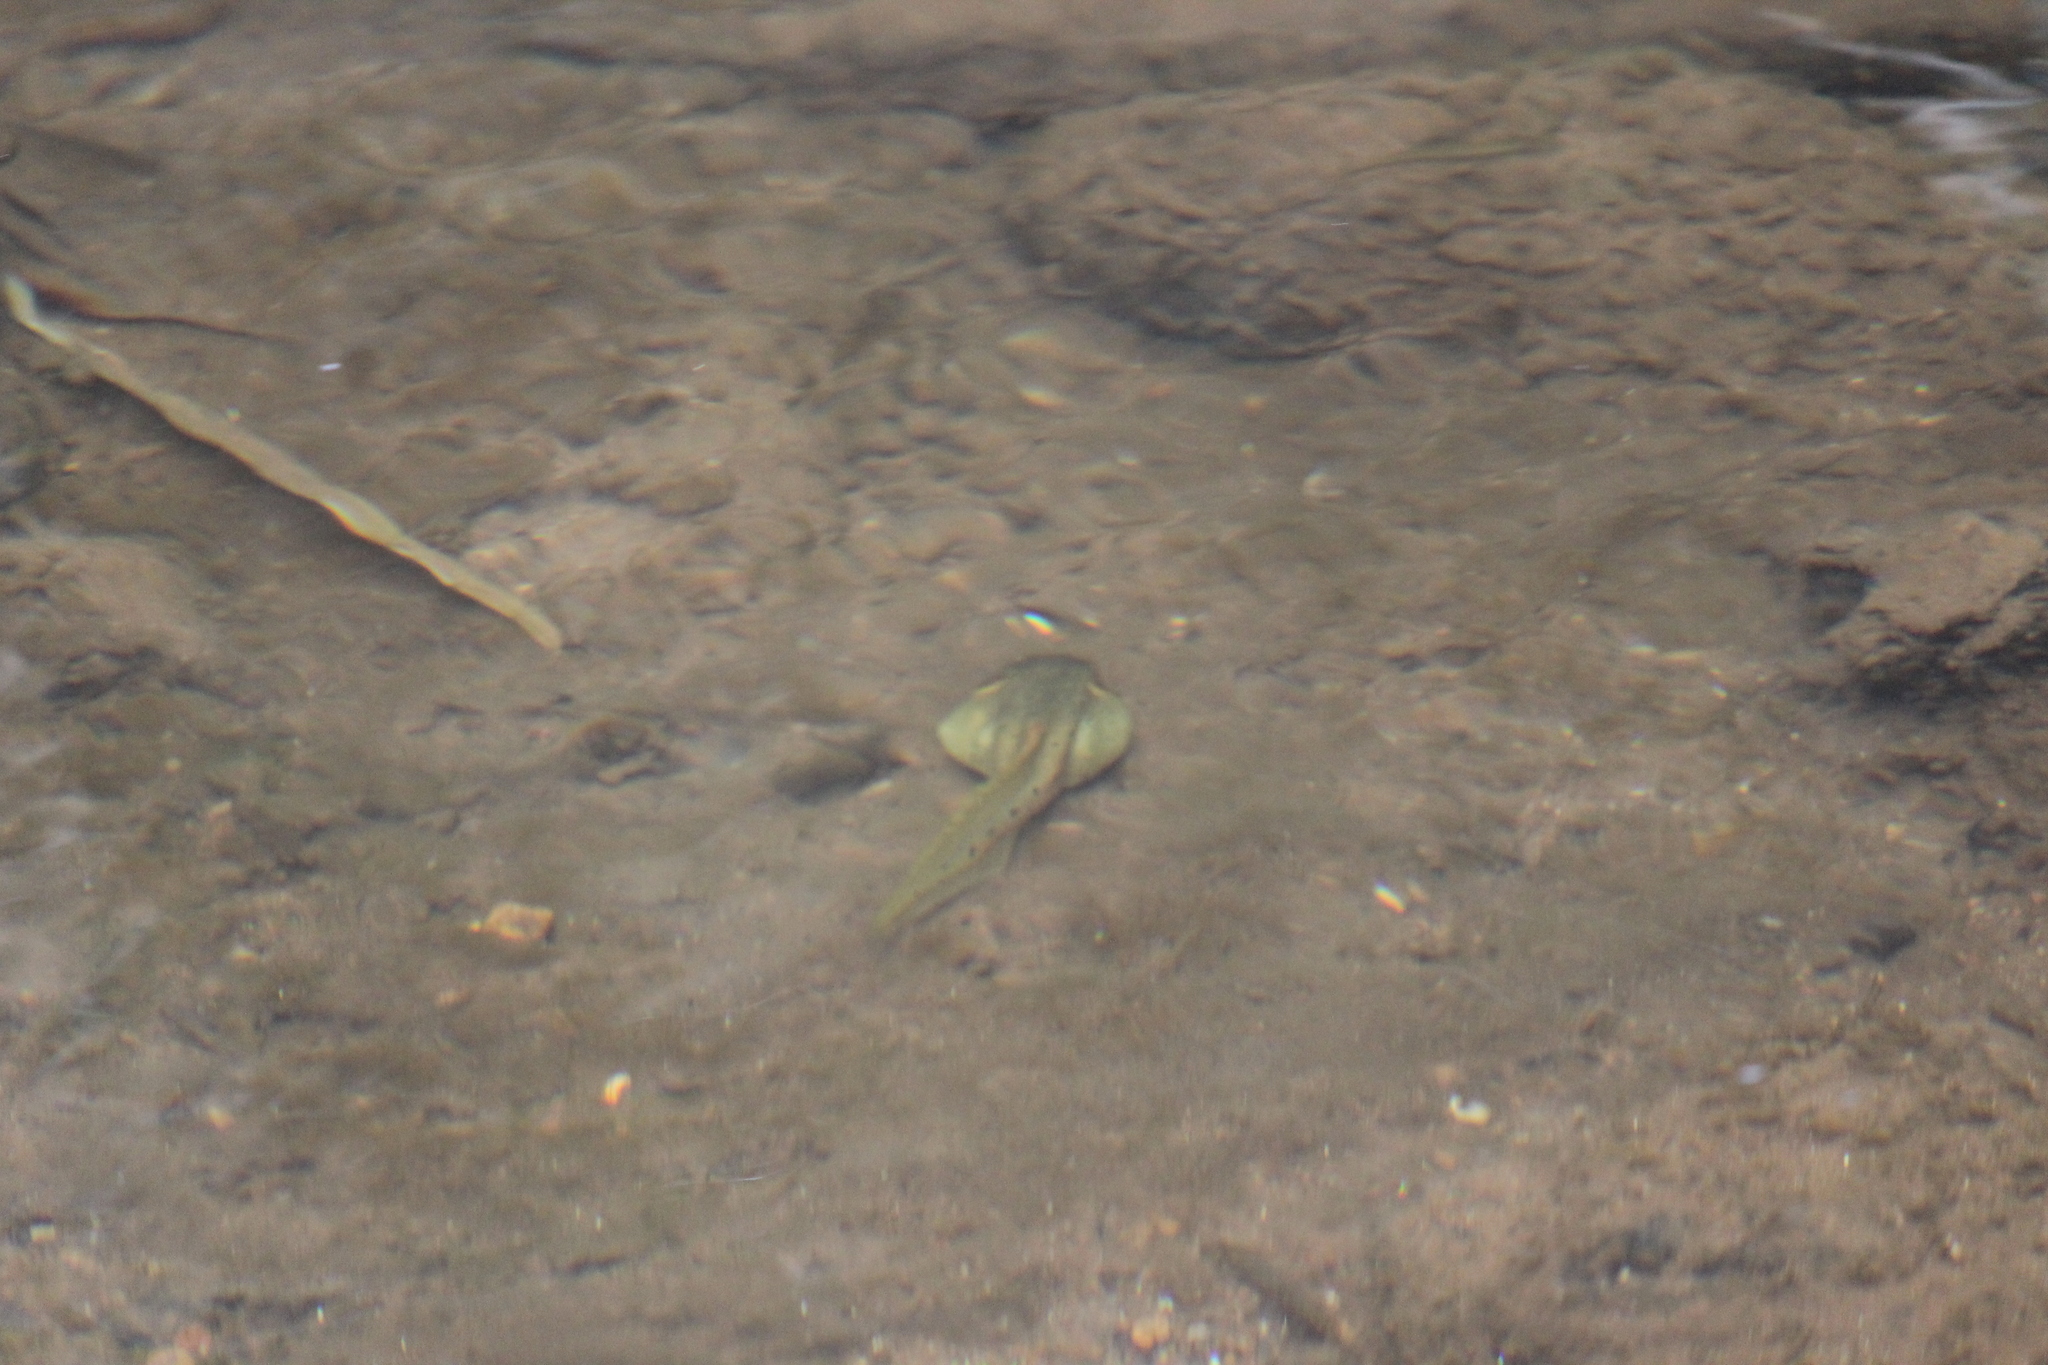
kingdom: Animalia
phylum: Chordata
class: Amphibia
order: Anura
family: Ranidae
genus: Clinotarsus
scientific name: Clinotarsus curtipes
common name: Bicoloured frog
